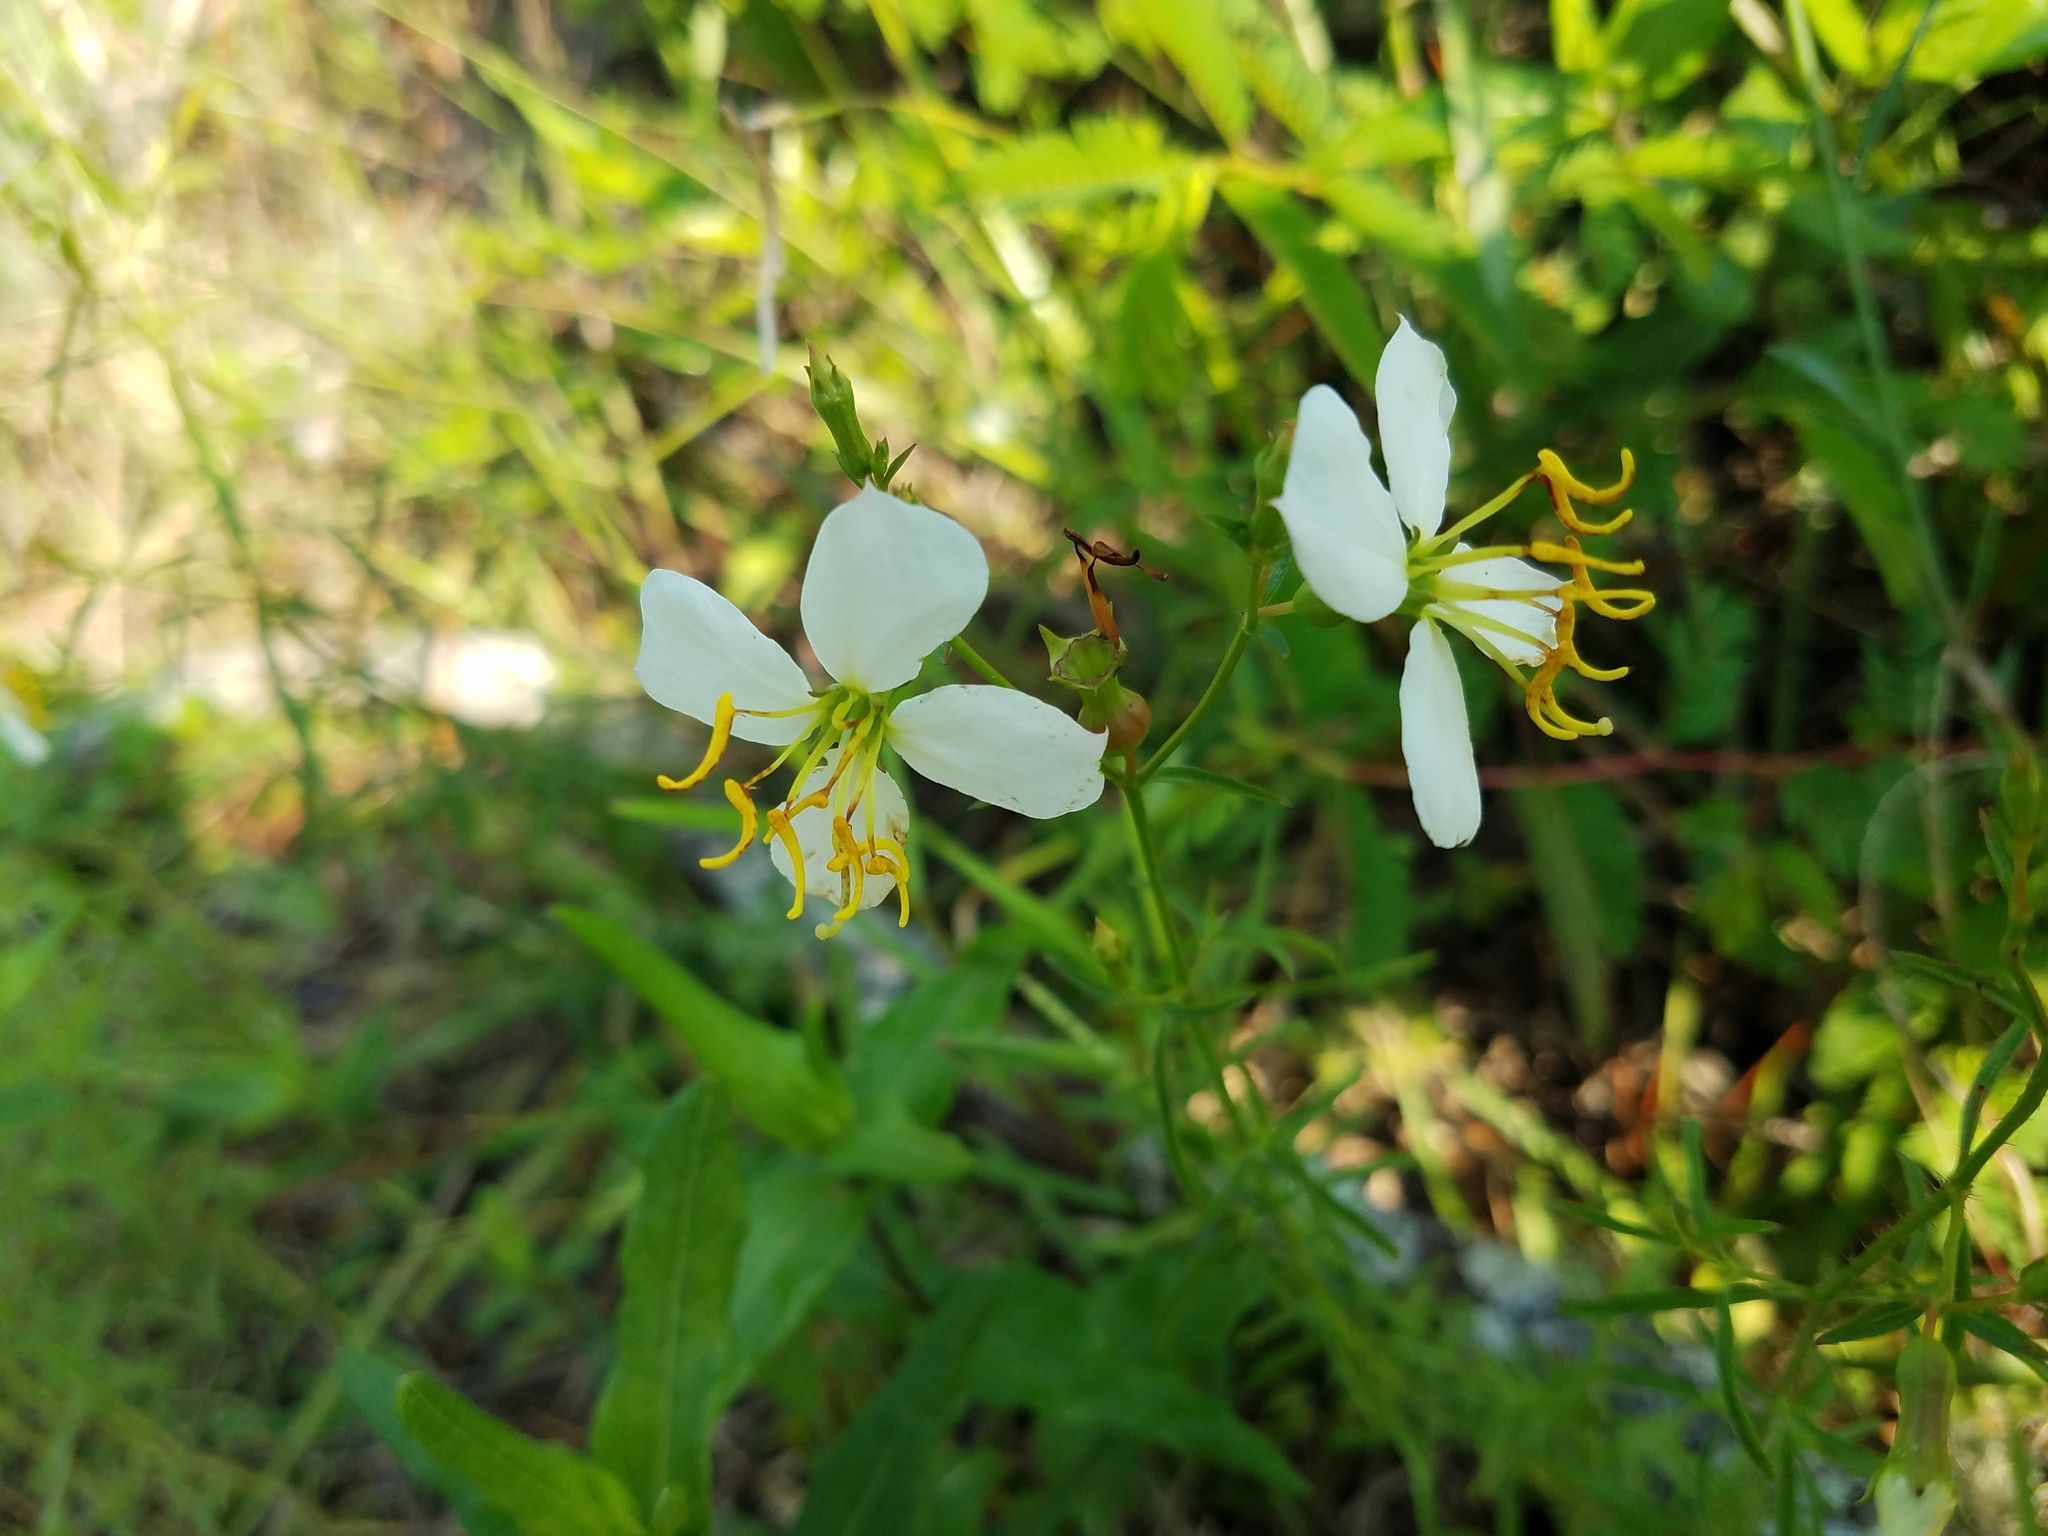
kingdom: Plantae
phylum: Tracheophyta
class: Magnoliopsida
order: Myrtales
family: Melastomataceae
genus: Rhexia
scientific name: Rhexia mariana
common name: Dull meadow-pitcher
